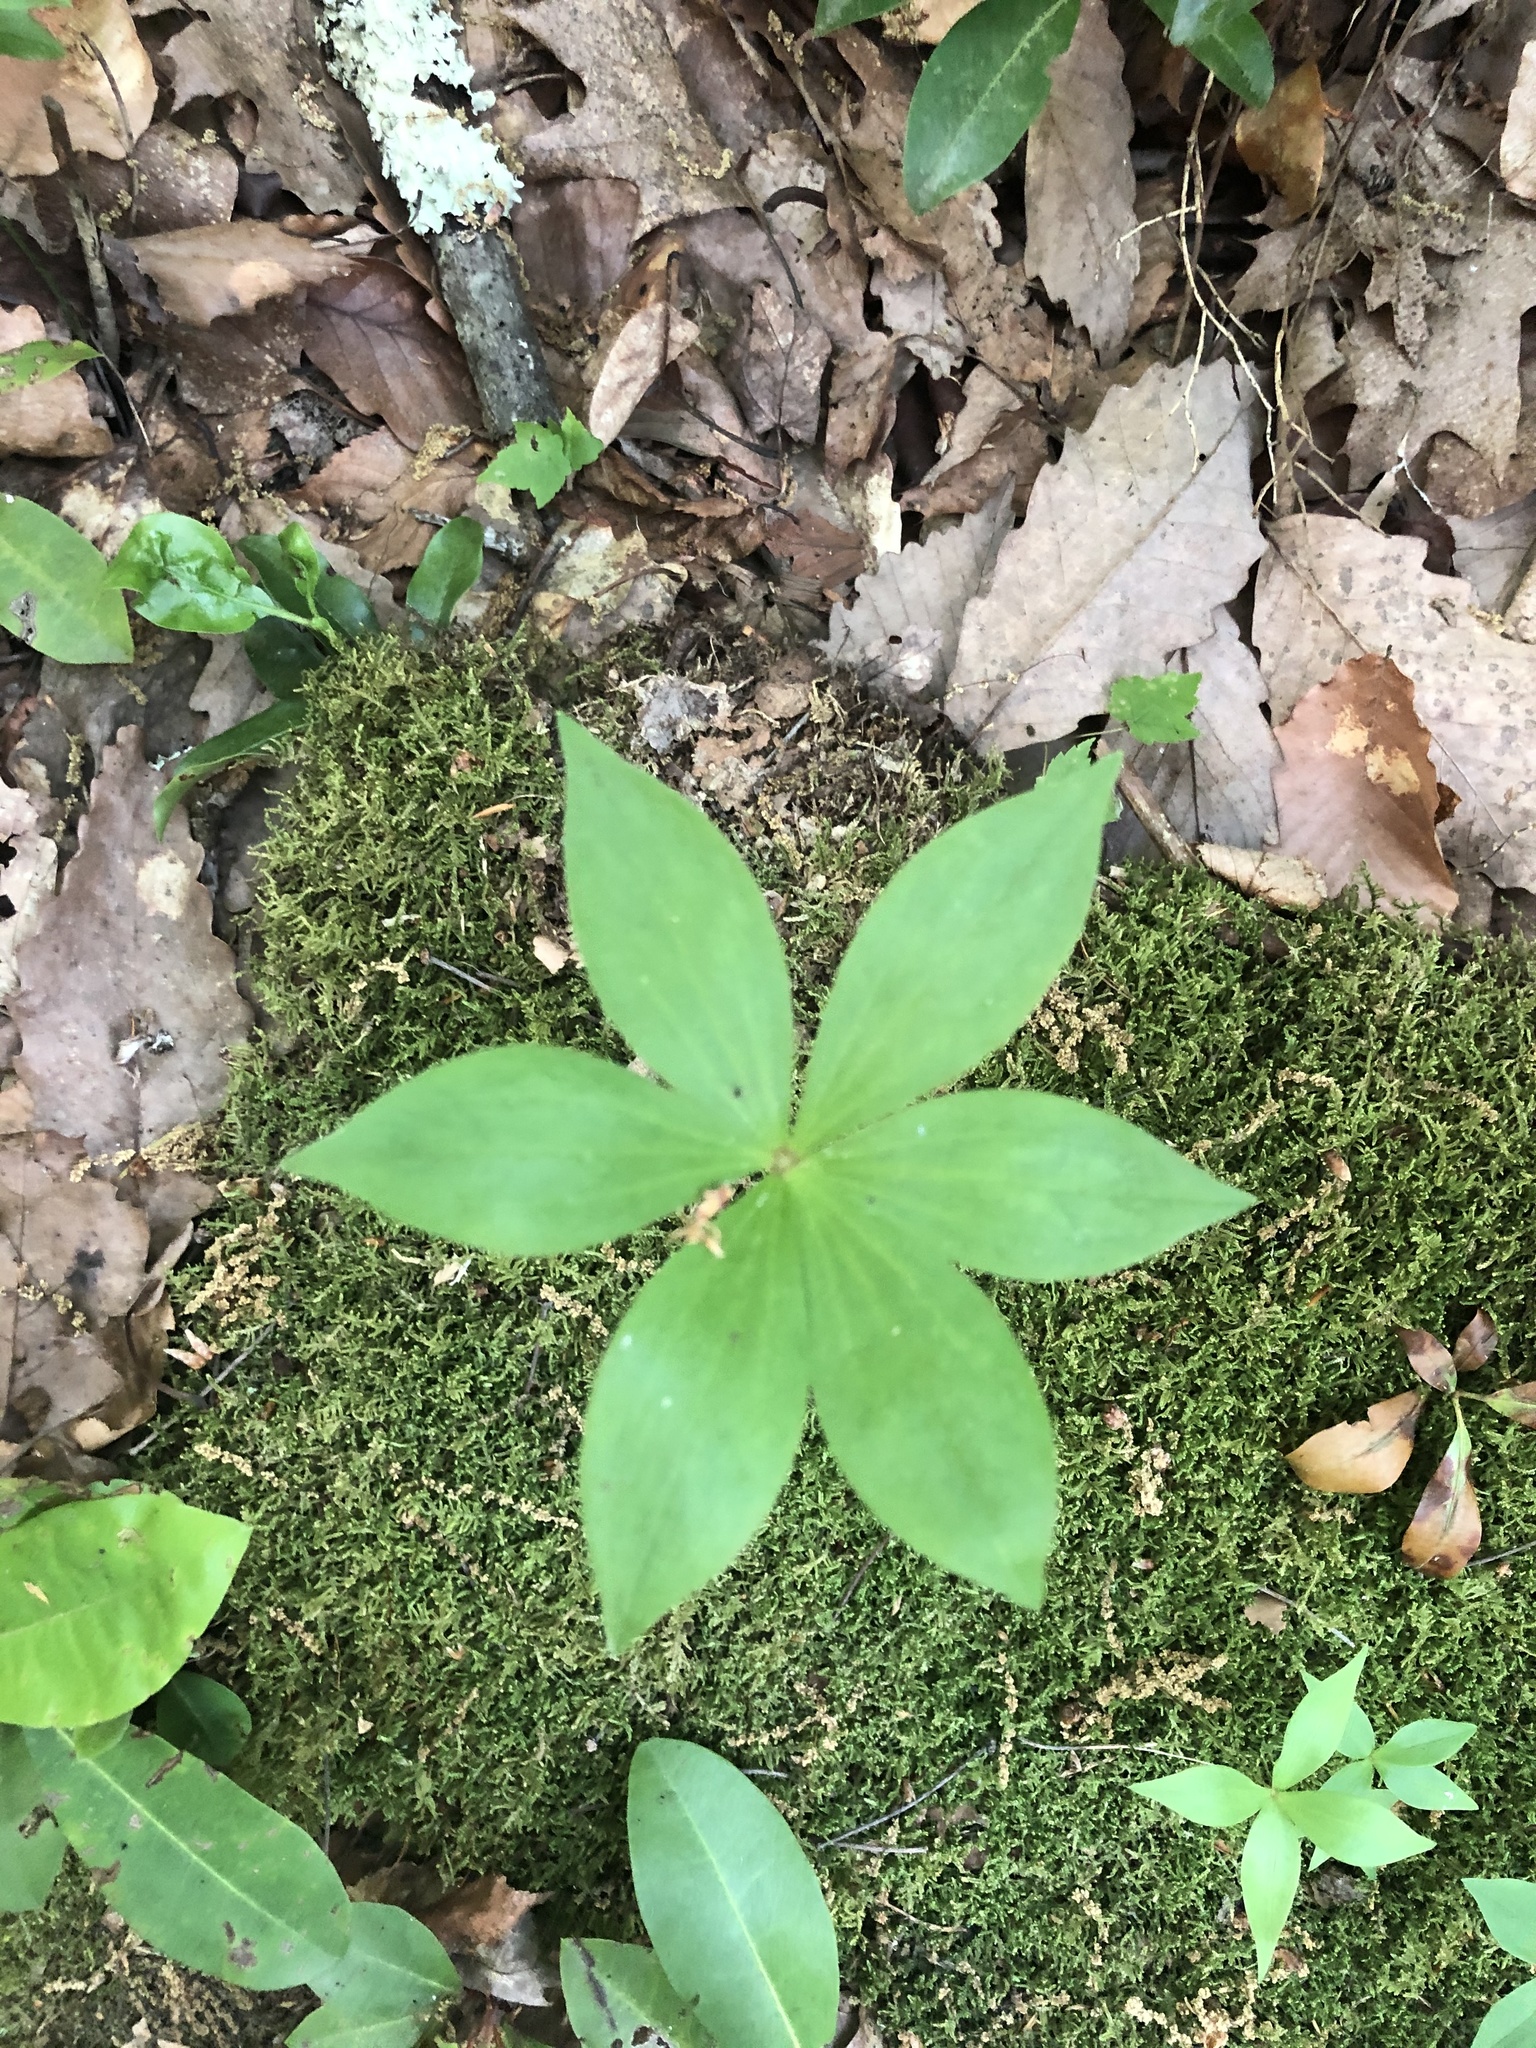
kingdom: Plantae
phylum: Tracheophyta
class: Liliopsida
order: Liliales
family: Liliaceae
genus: Medeola
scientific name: Medeola virginiana
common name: Indian cucumber-root
